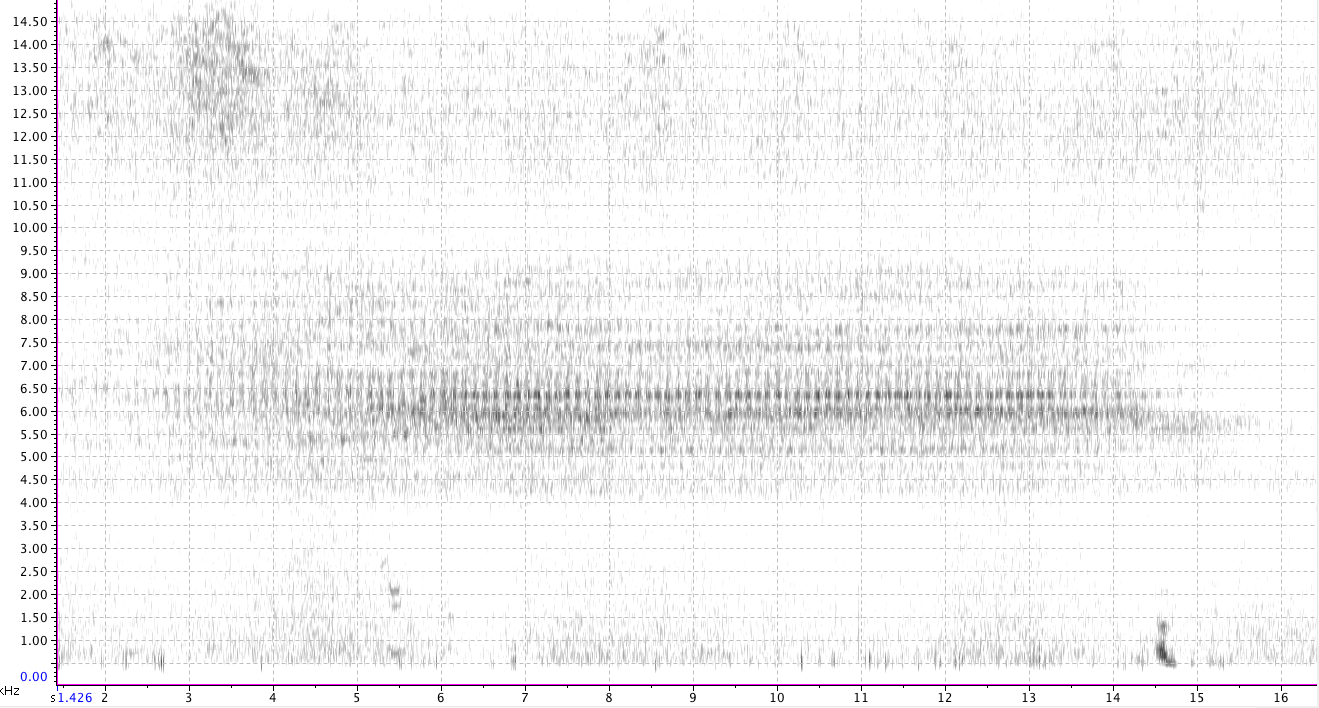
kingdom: Animalia
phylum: Arthropoda
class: Insecta
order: Hemiptera
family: Cicadidae
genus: Neotibicen
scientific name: Neotibicen linnei
